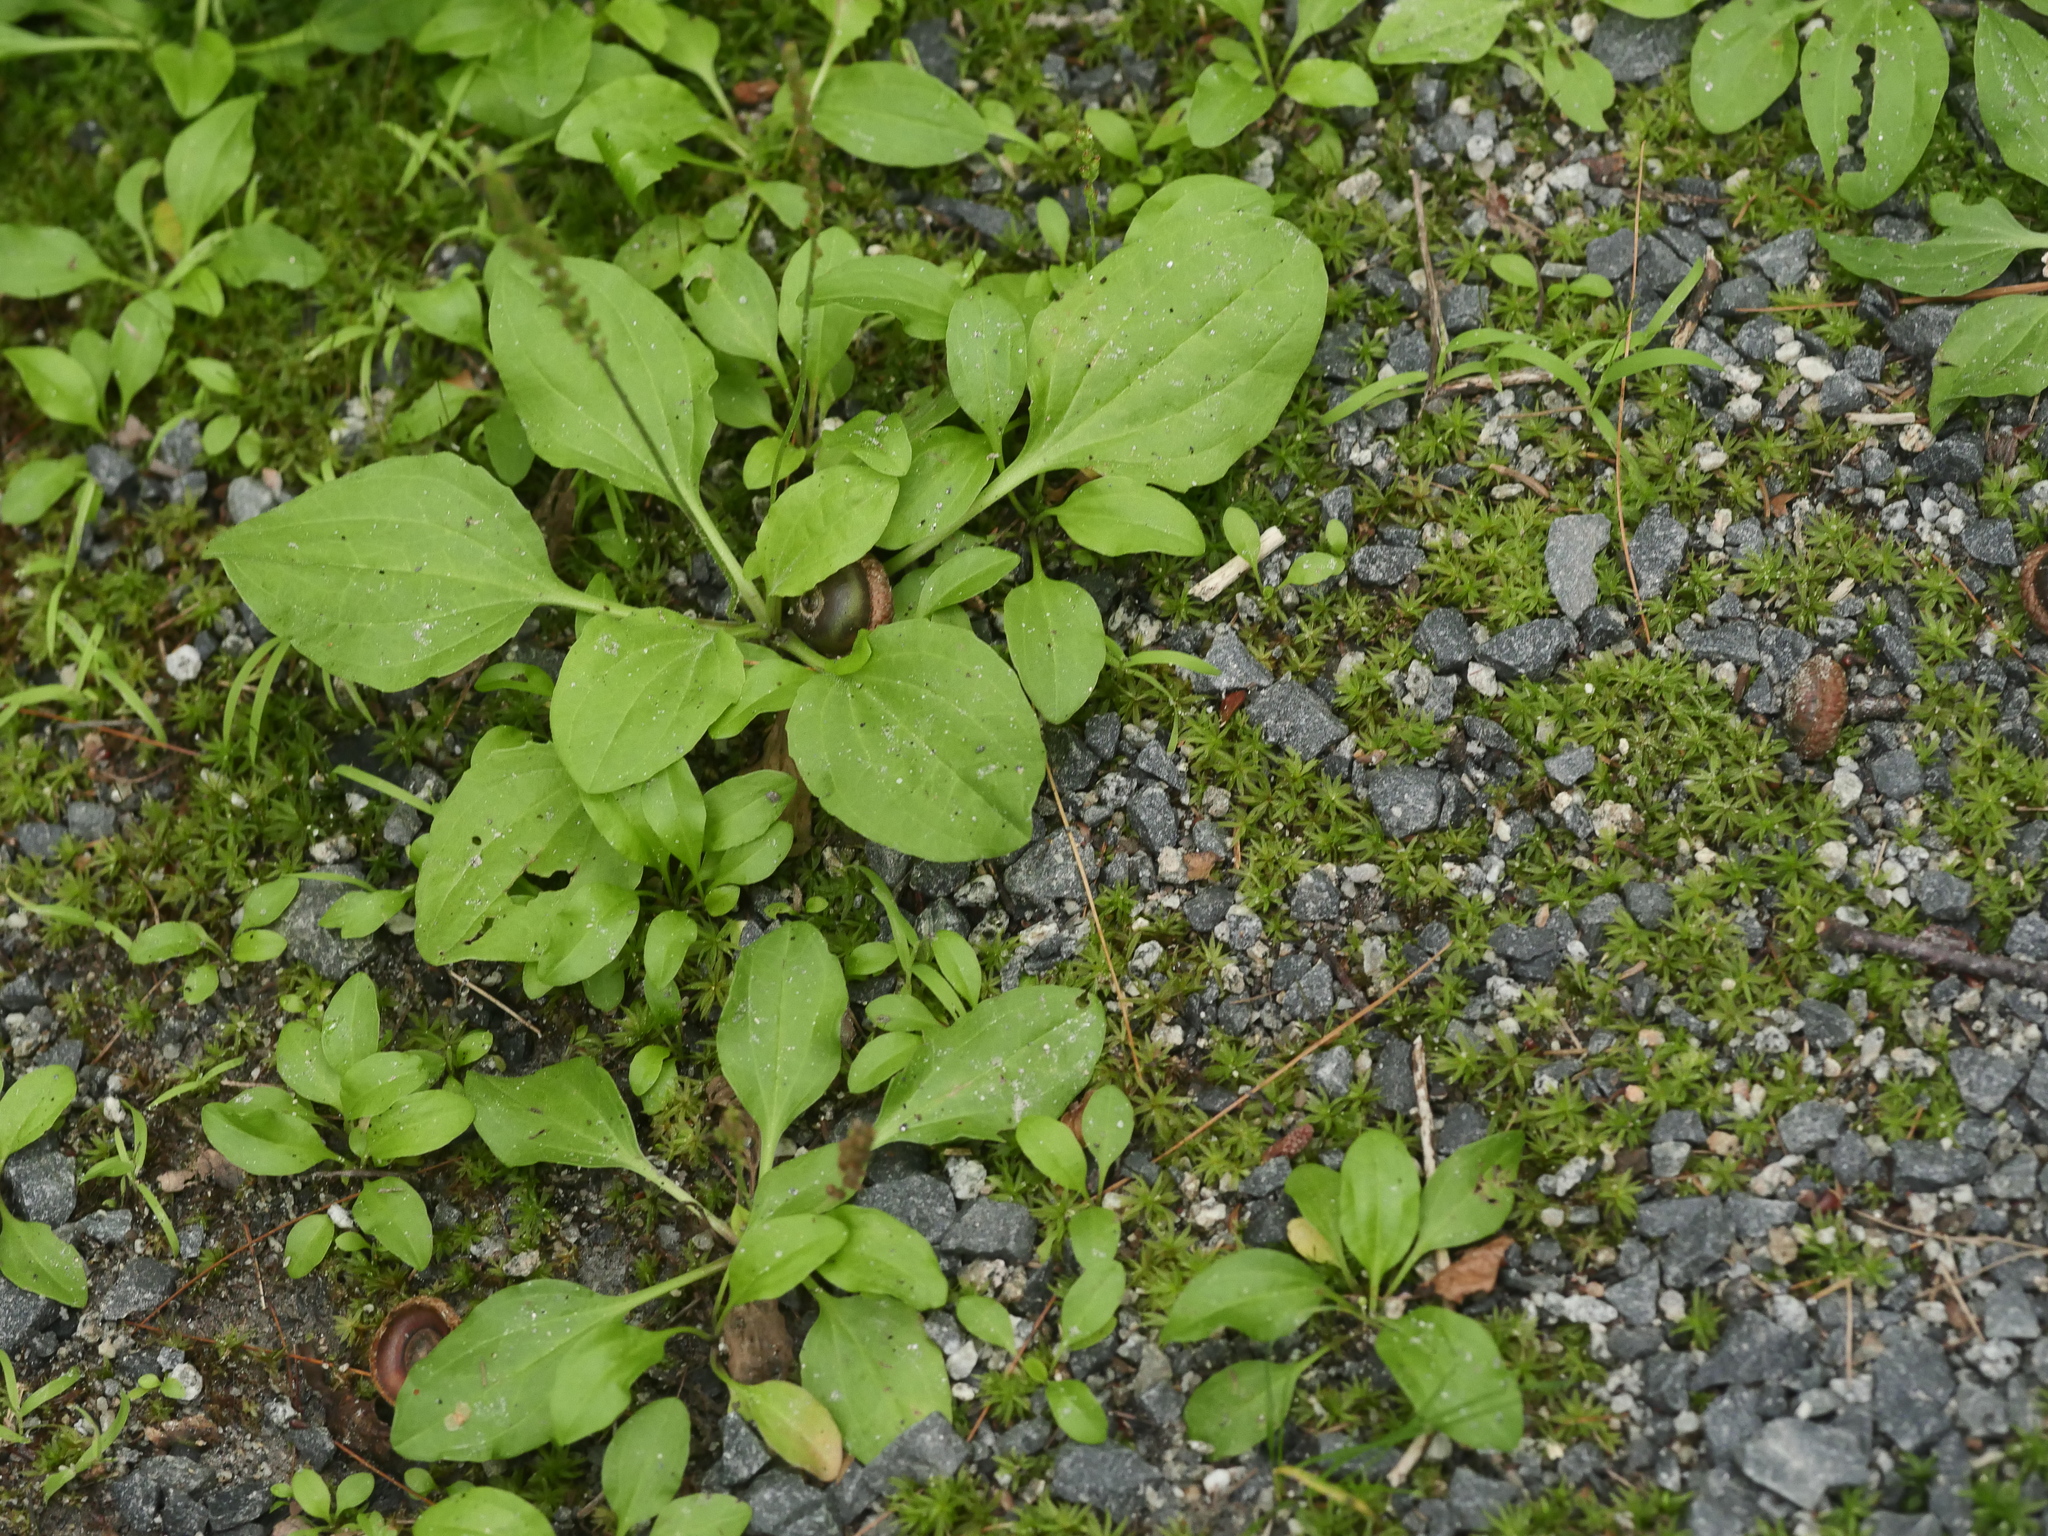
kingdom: Plantae
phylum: Tracheophyta
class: Magnoliopsida
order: Lamiales
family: Plantaginaceae
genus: Plantago
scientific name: Plantago major
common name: Common plantain
